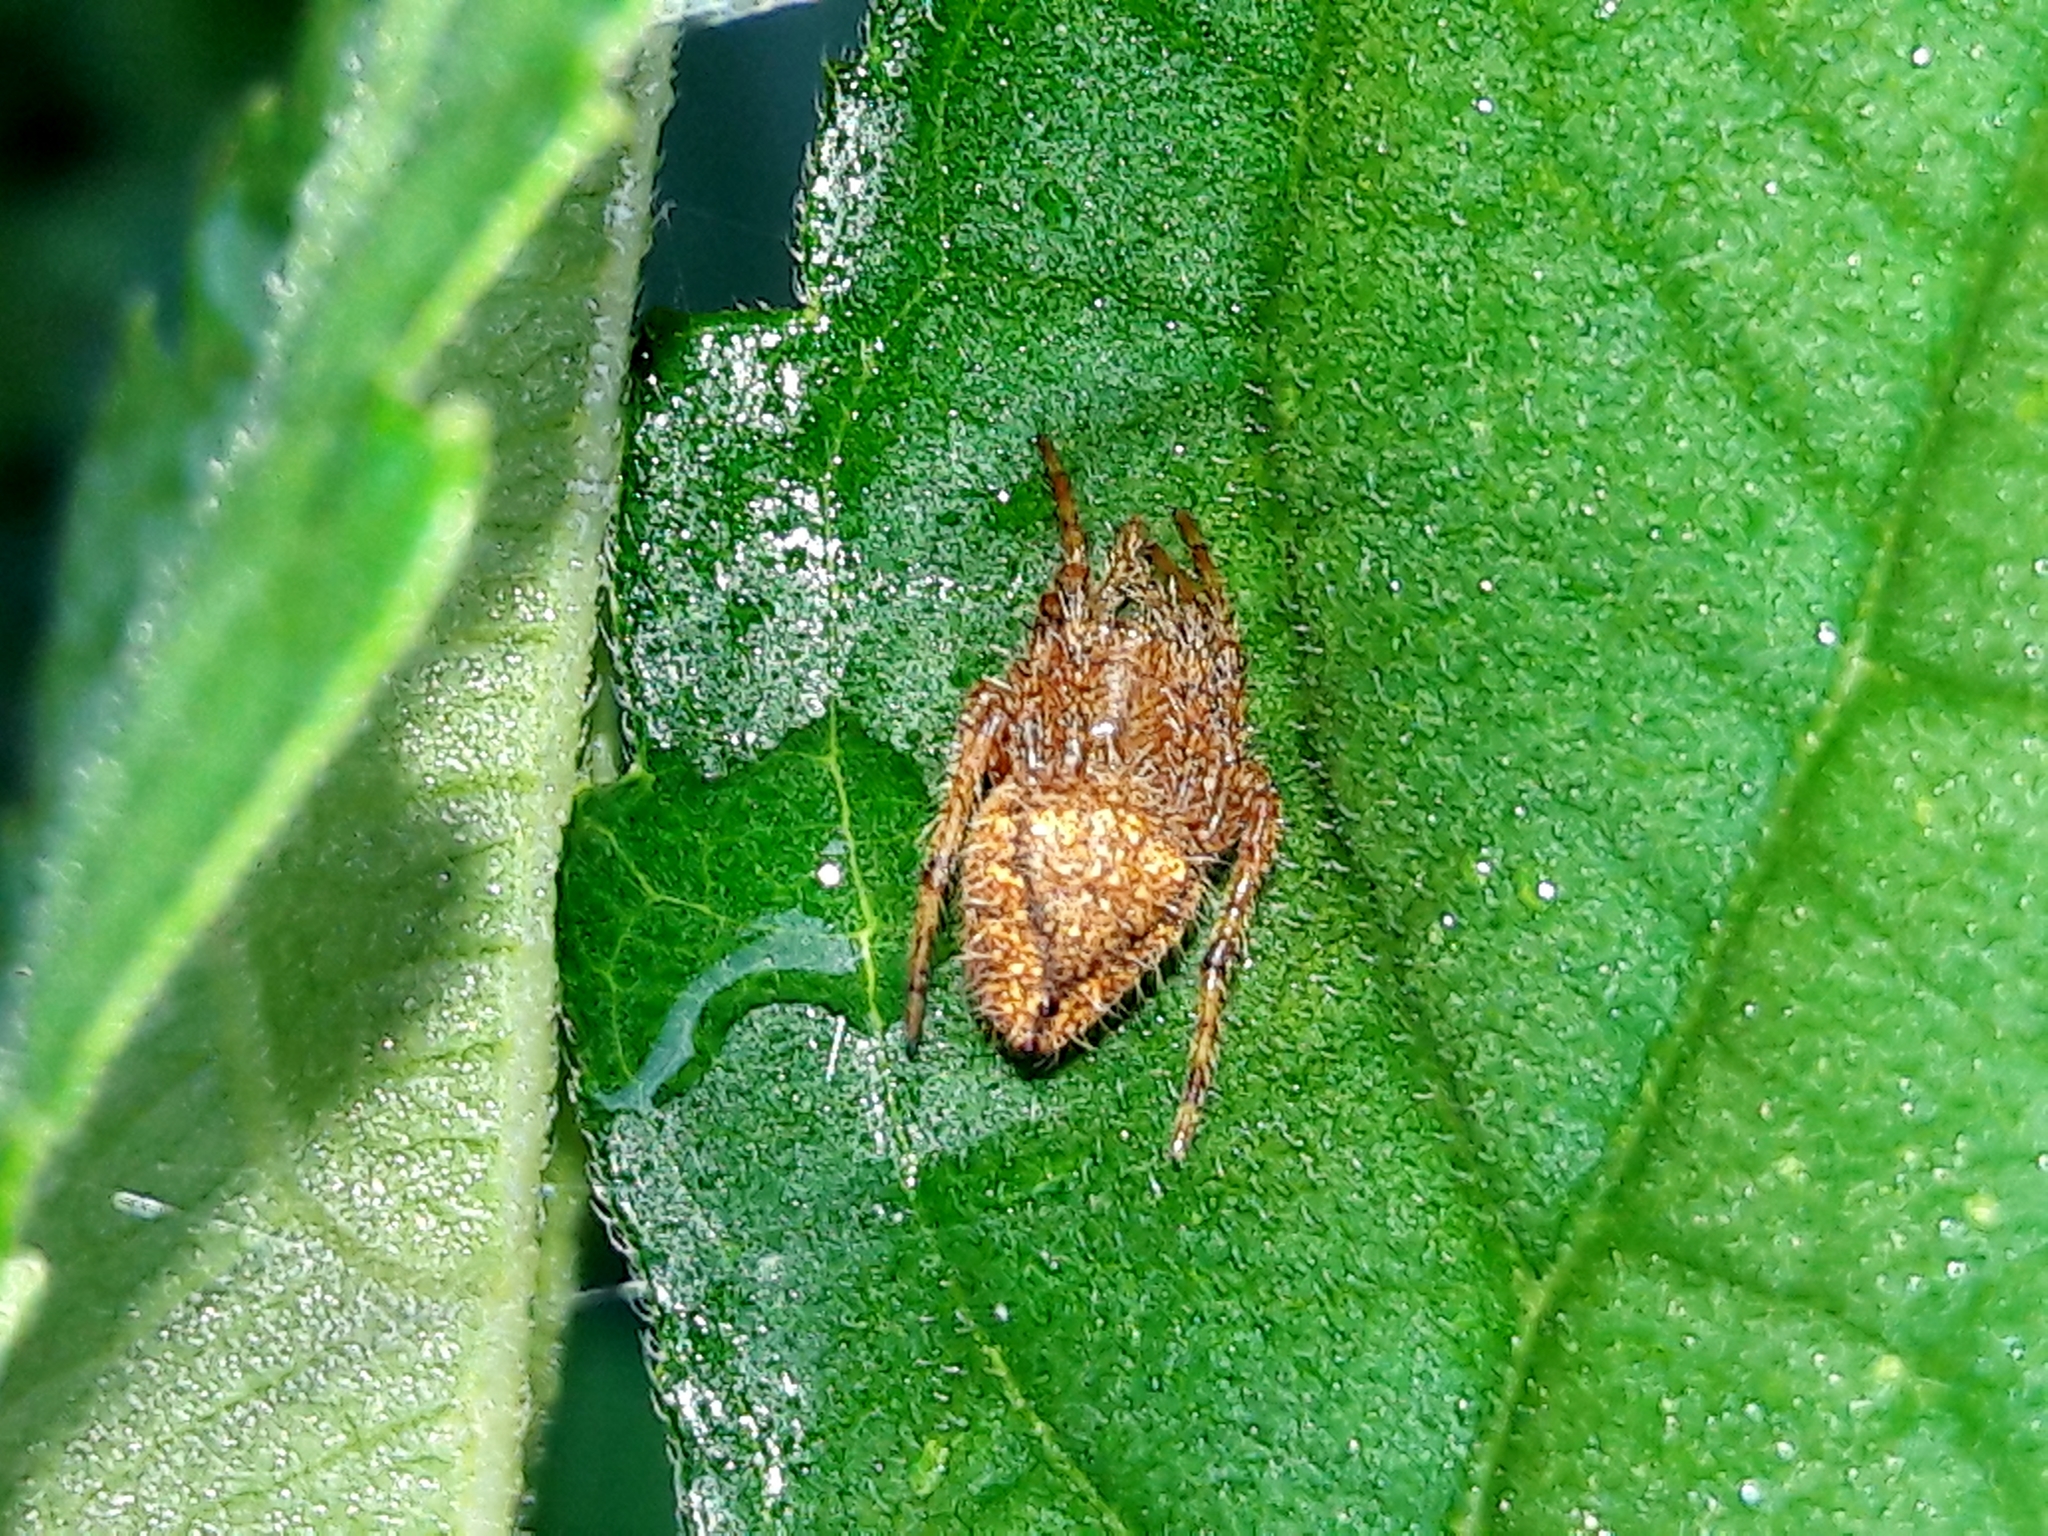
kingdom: Animalia
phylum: Arthropoda
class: Arachnida
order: Araneae
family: Araneidae
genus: Eriophora
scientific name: Eriophora edax
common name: Orb weavers
